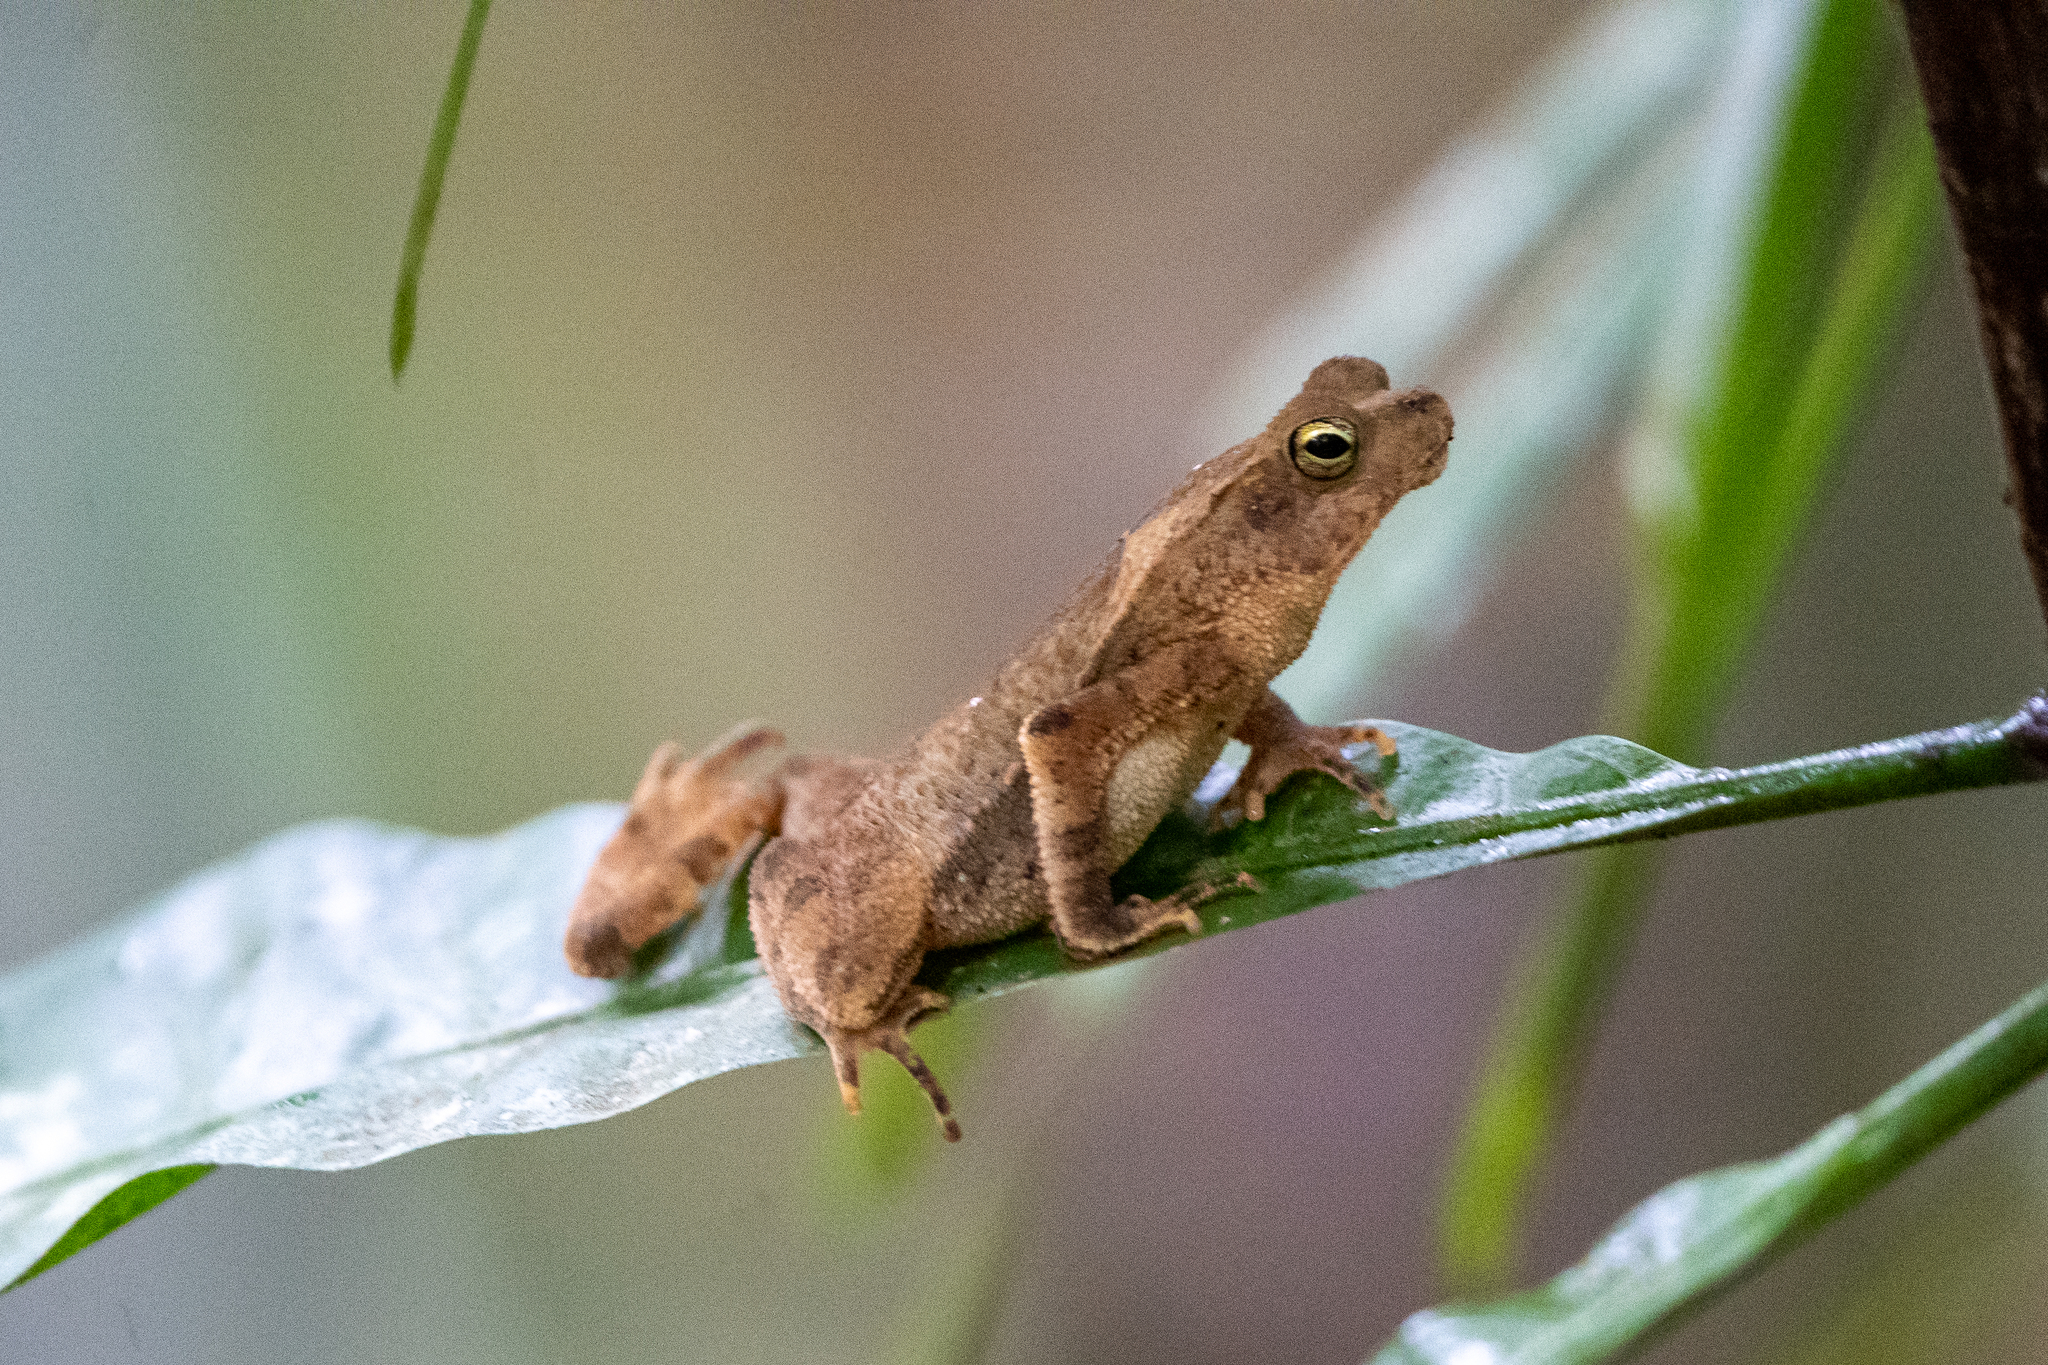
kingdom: Animalia
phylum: Chordata
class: Amphibia
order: Anura
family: Bufonidae
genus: Rhinella
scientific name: Rhinella alata
